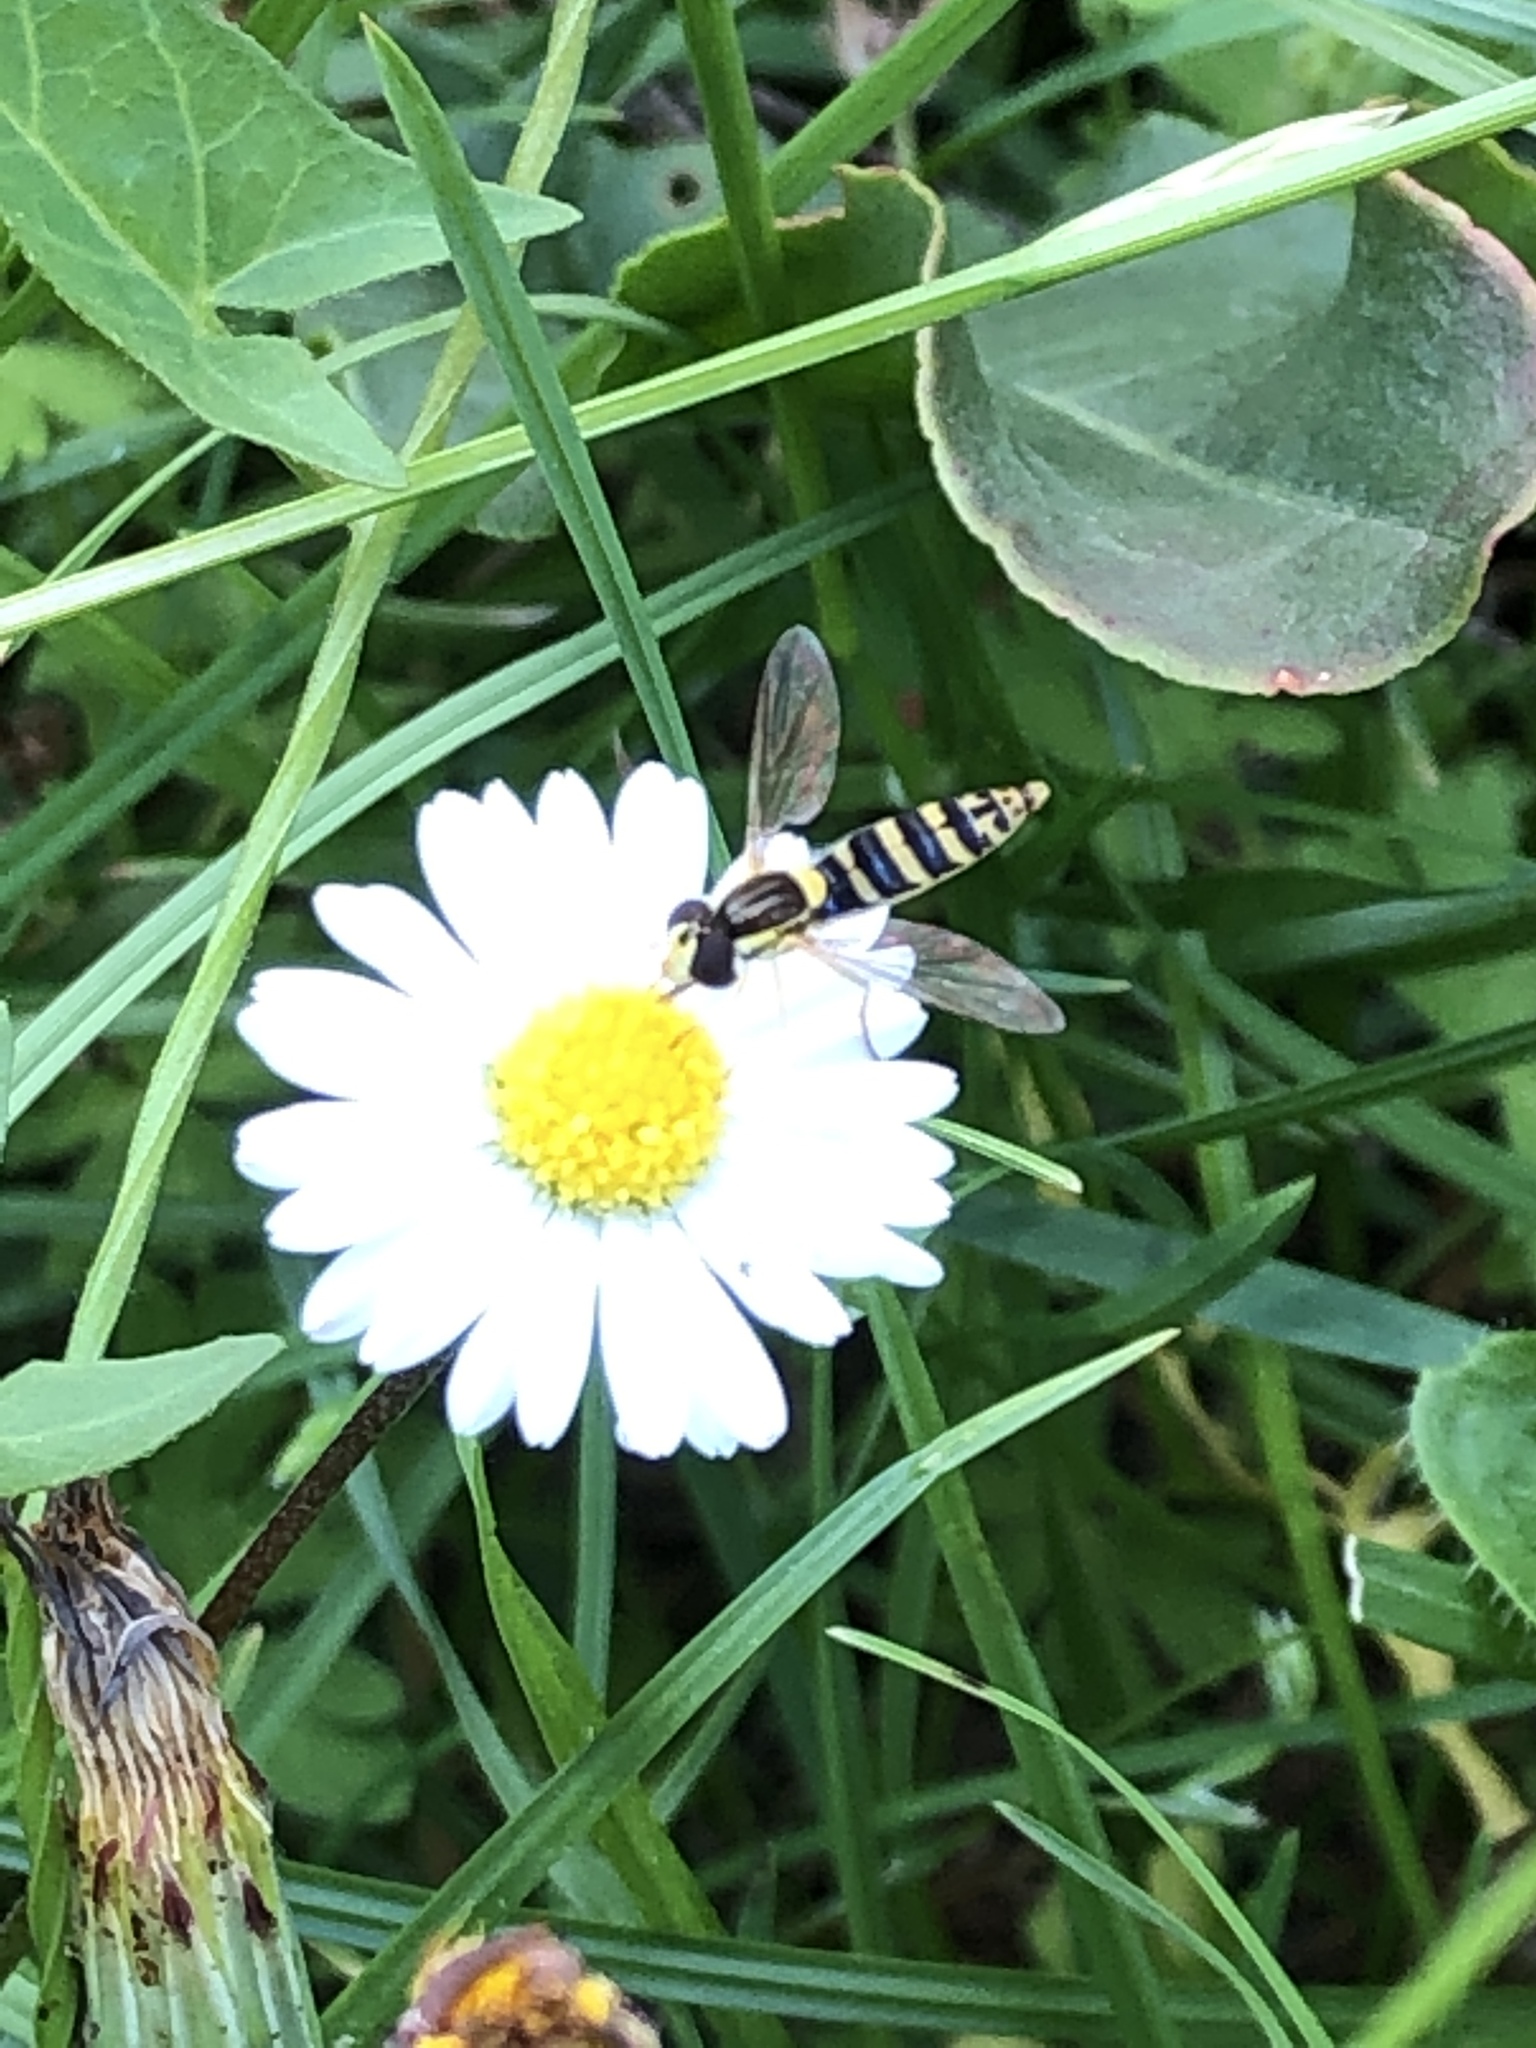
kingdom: Animalia
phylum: Arthropoda
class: Insecta
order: Diptera
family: Syrphidae
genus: Sphaerophoria
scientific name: Sphaerophoria
